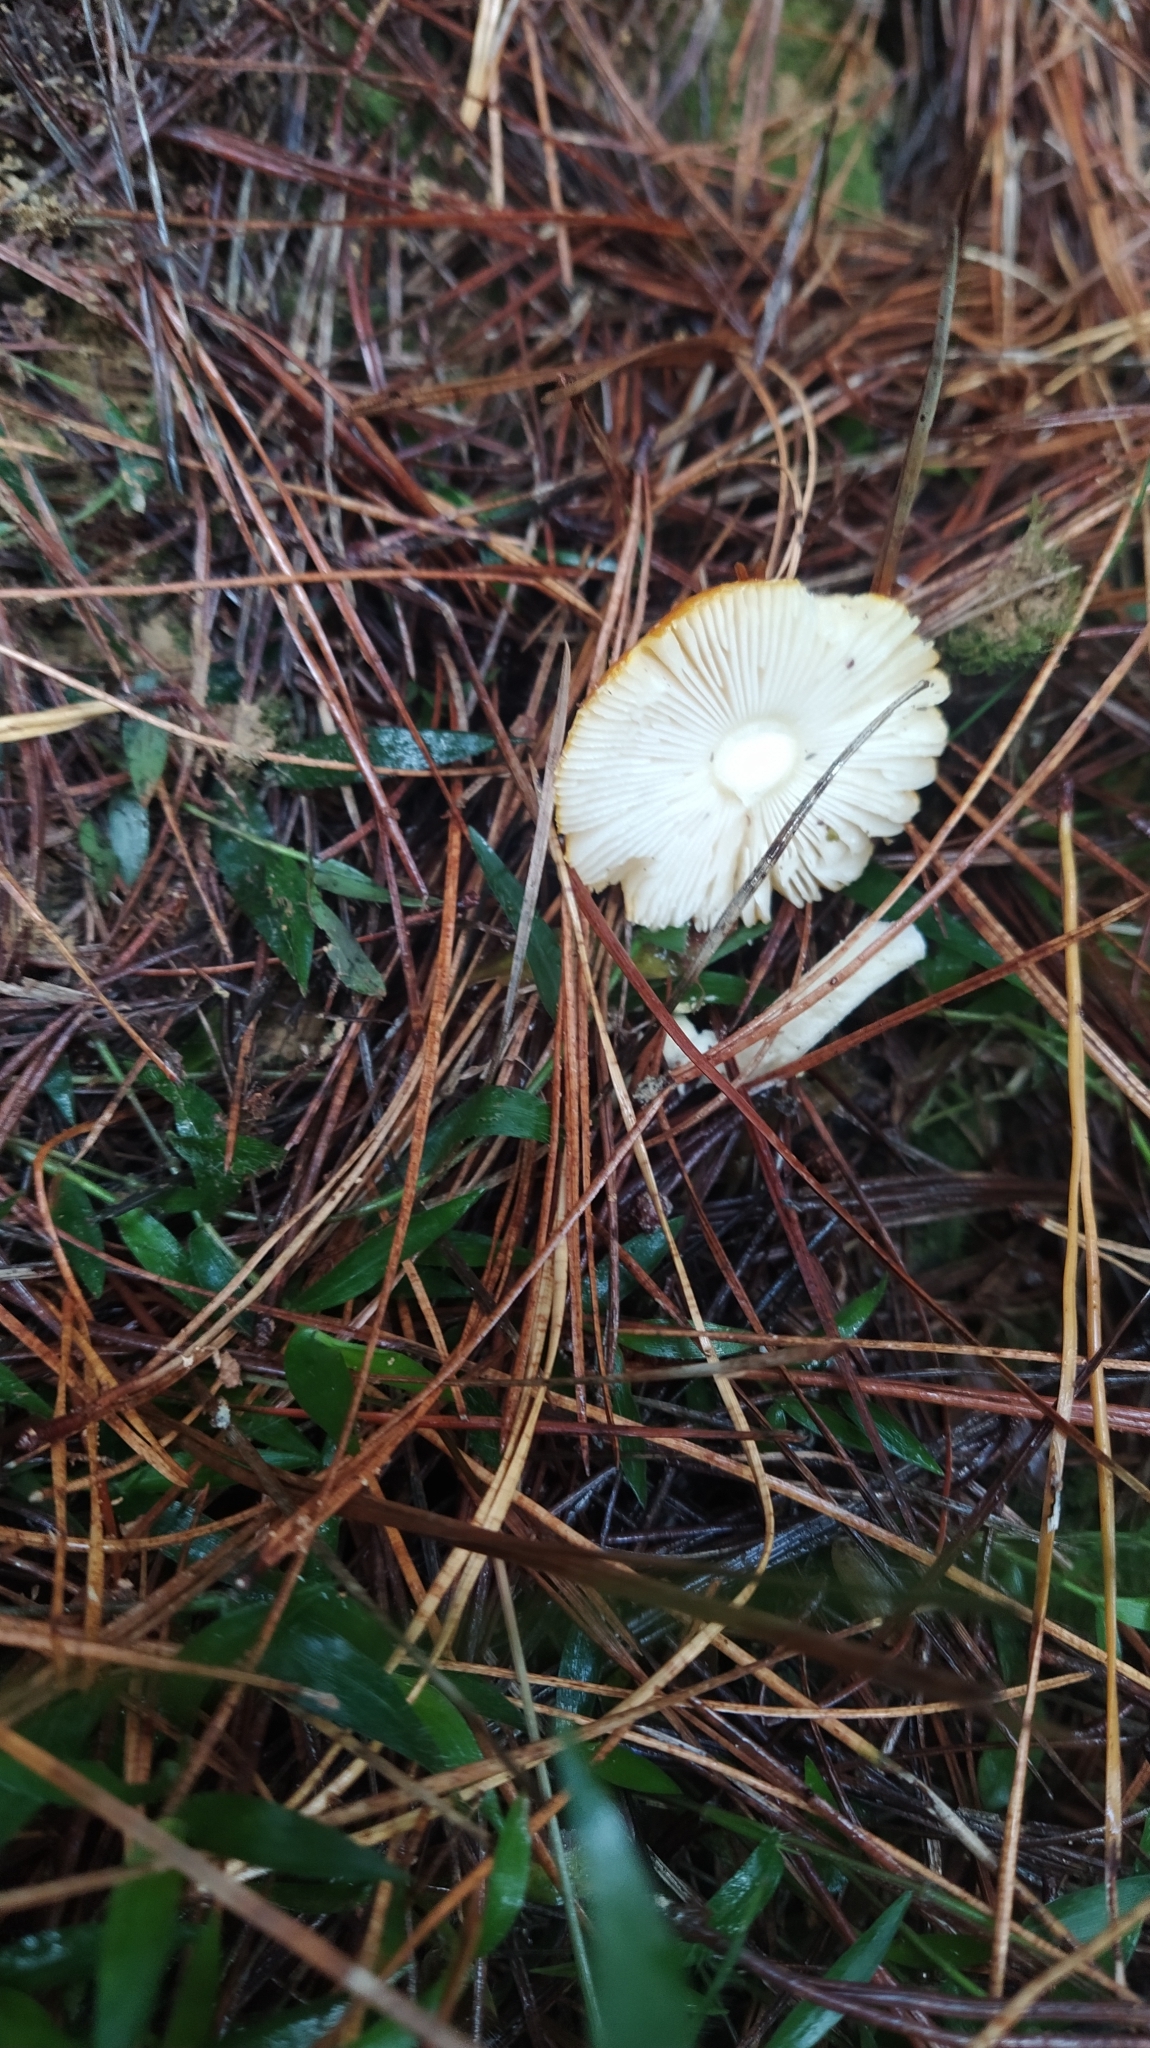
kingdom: Fungi
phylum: Basidiomycota
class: Agaricomycetes
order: Agaricales
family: Amanitaceae
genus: Amanita
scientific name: Amanita muscaria
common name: Fly agaric
